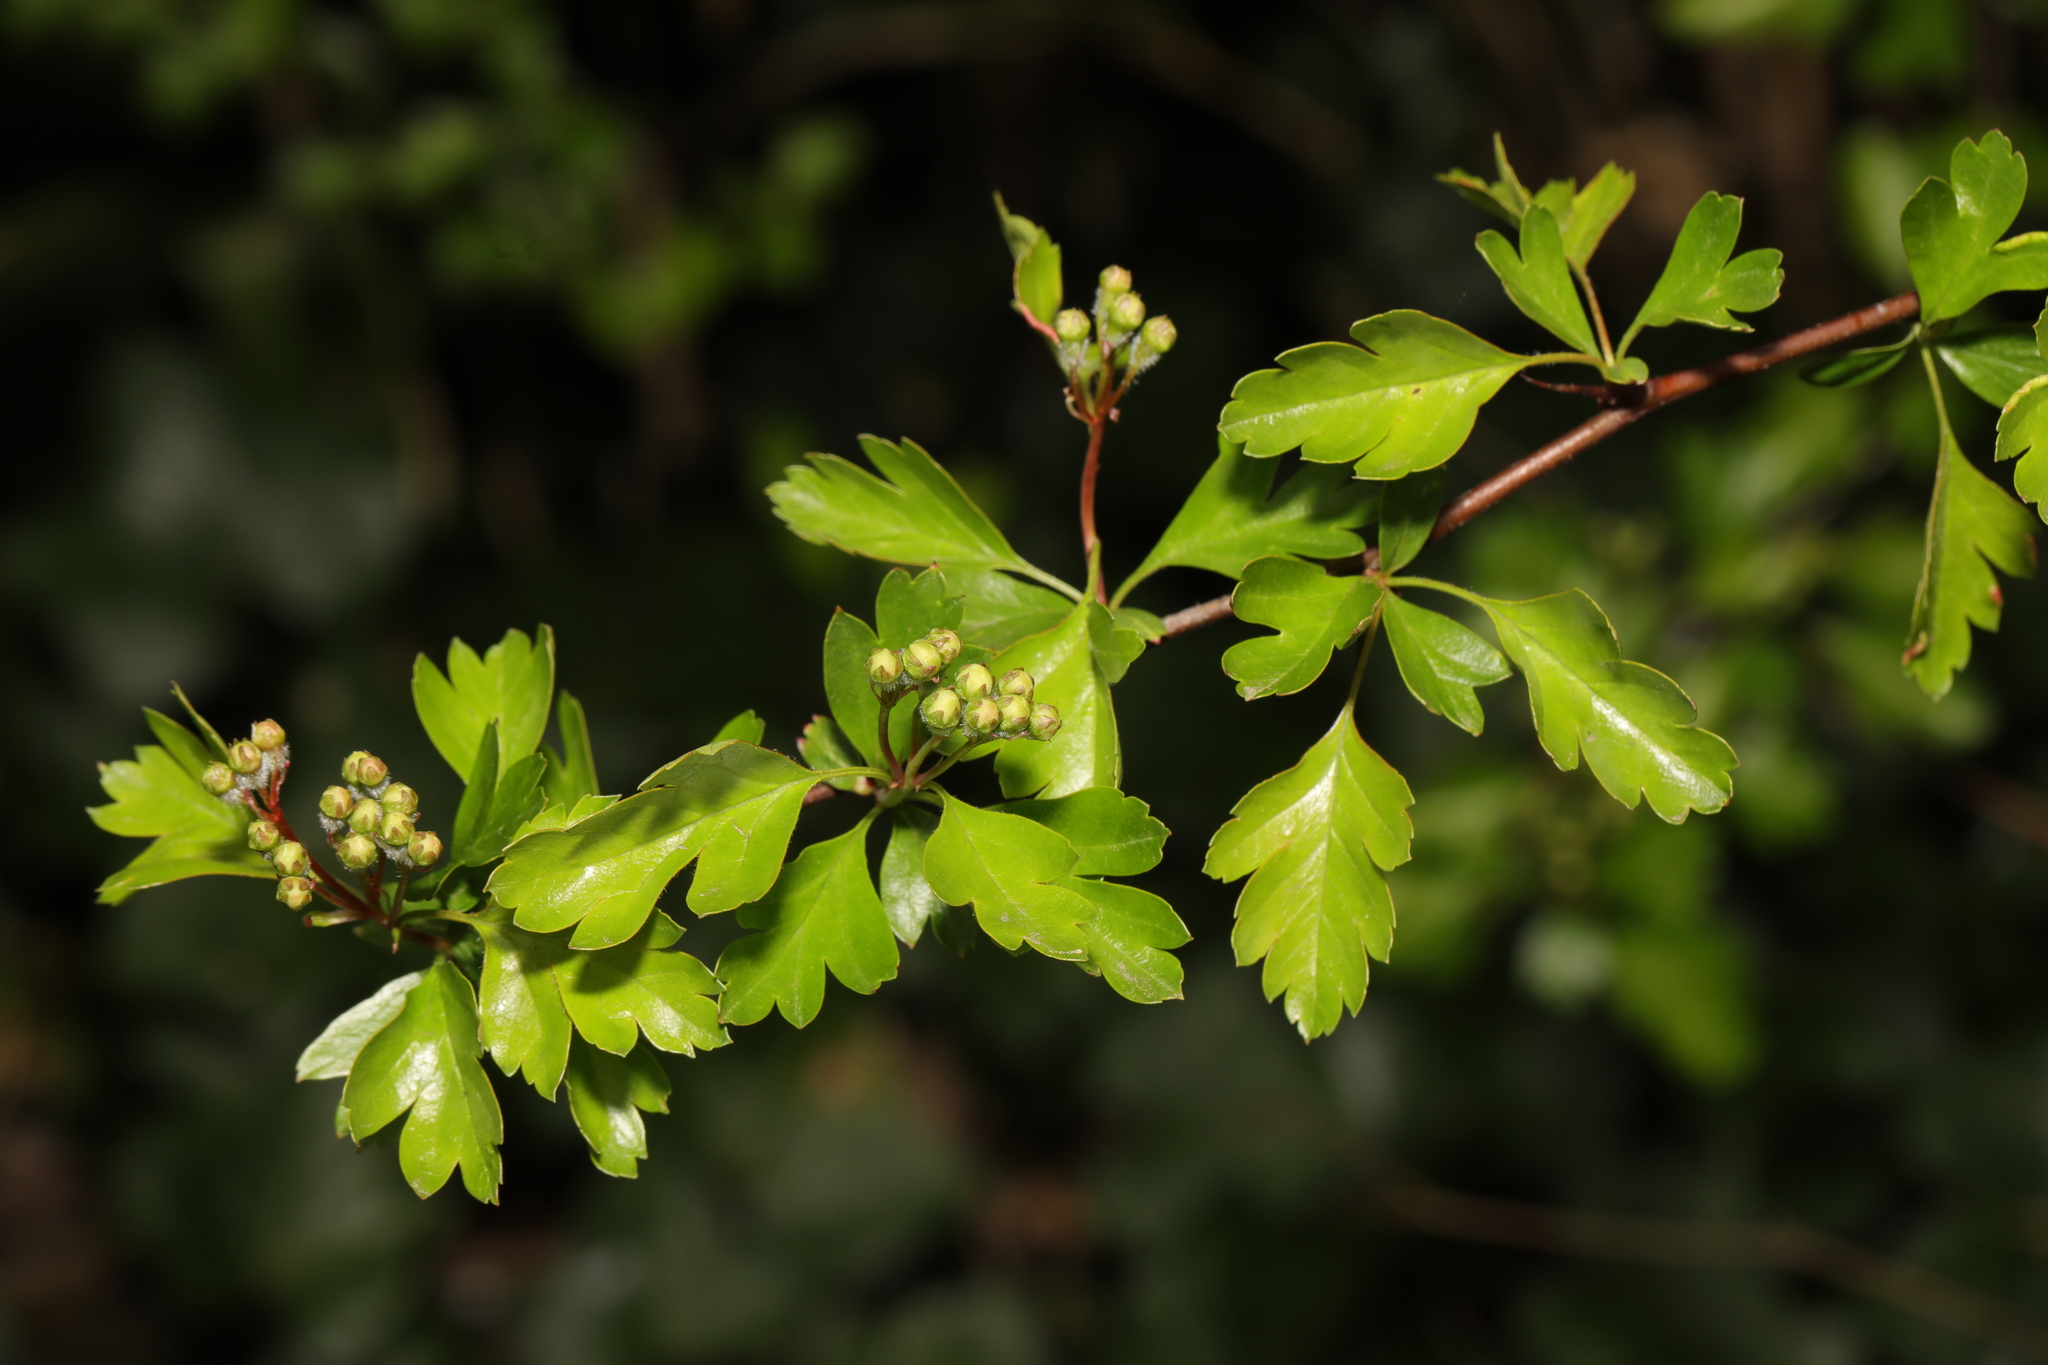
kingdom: Plantae
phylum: Tracheophyta
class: Magnoliopsida
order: Rosales
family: Rosaceae
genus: Crataegus
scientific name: Crataegus monogyna
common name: Hawthorn
